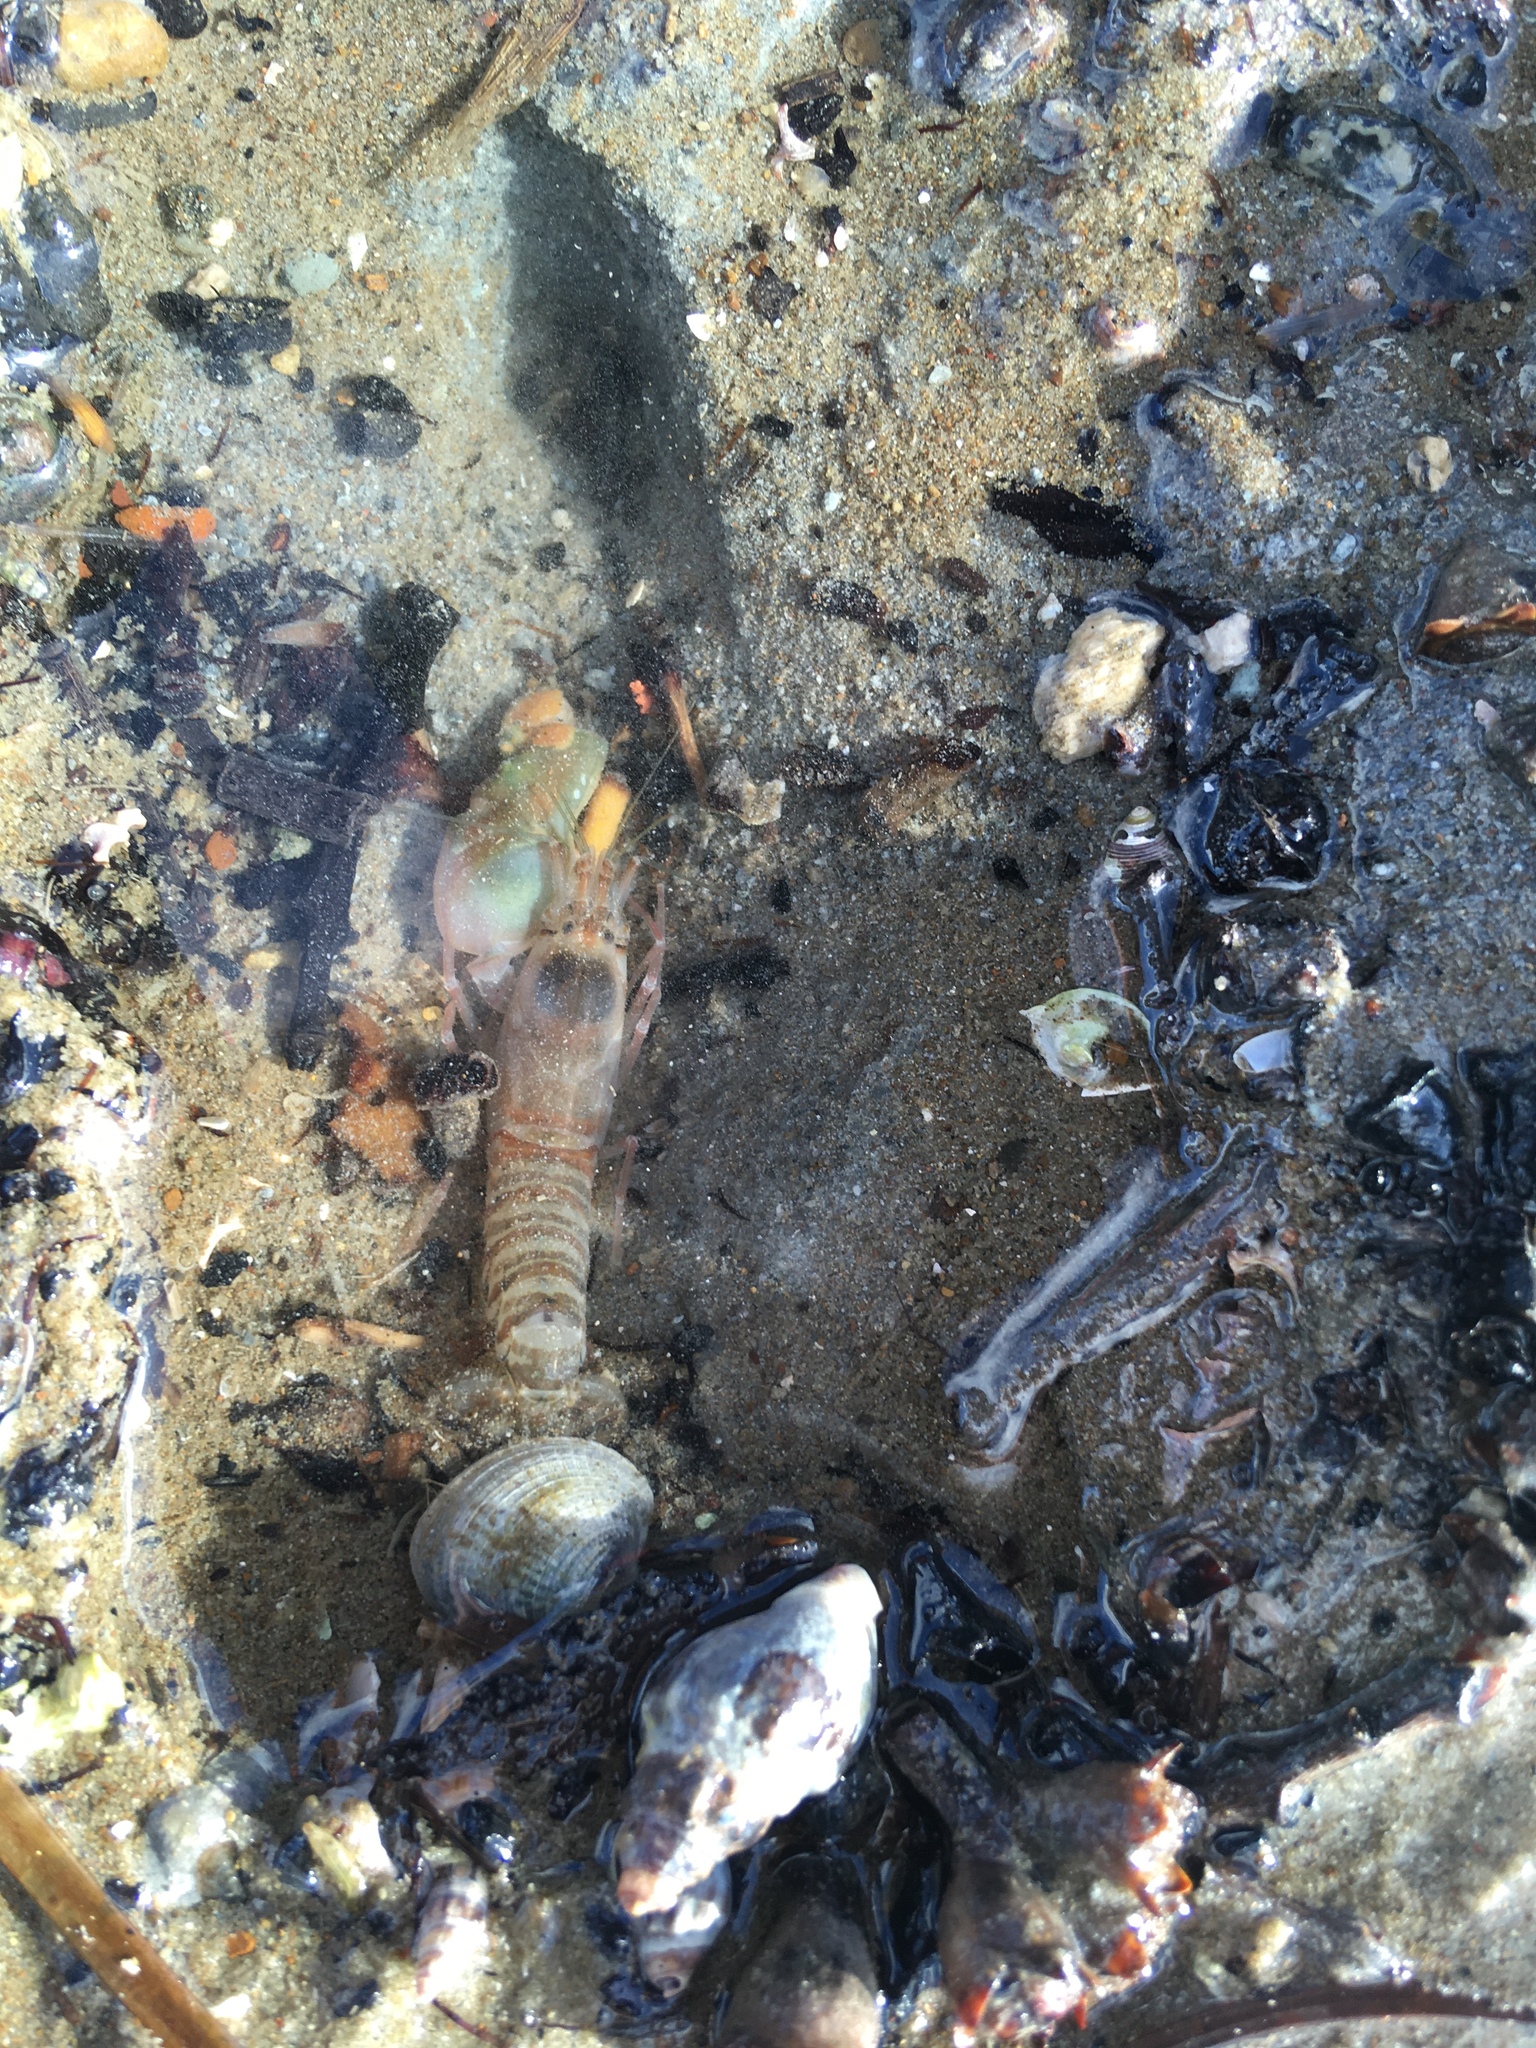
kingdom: Animalia
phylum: Arthropoda
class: Malacostraca
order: Decapoda
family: Alpheidae
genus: Alpheus
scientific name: Alpheus richardsoni
